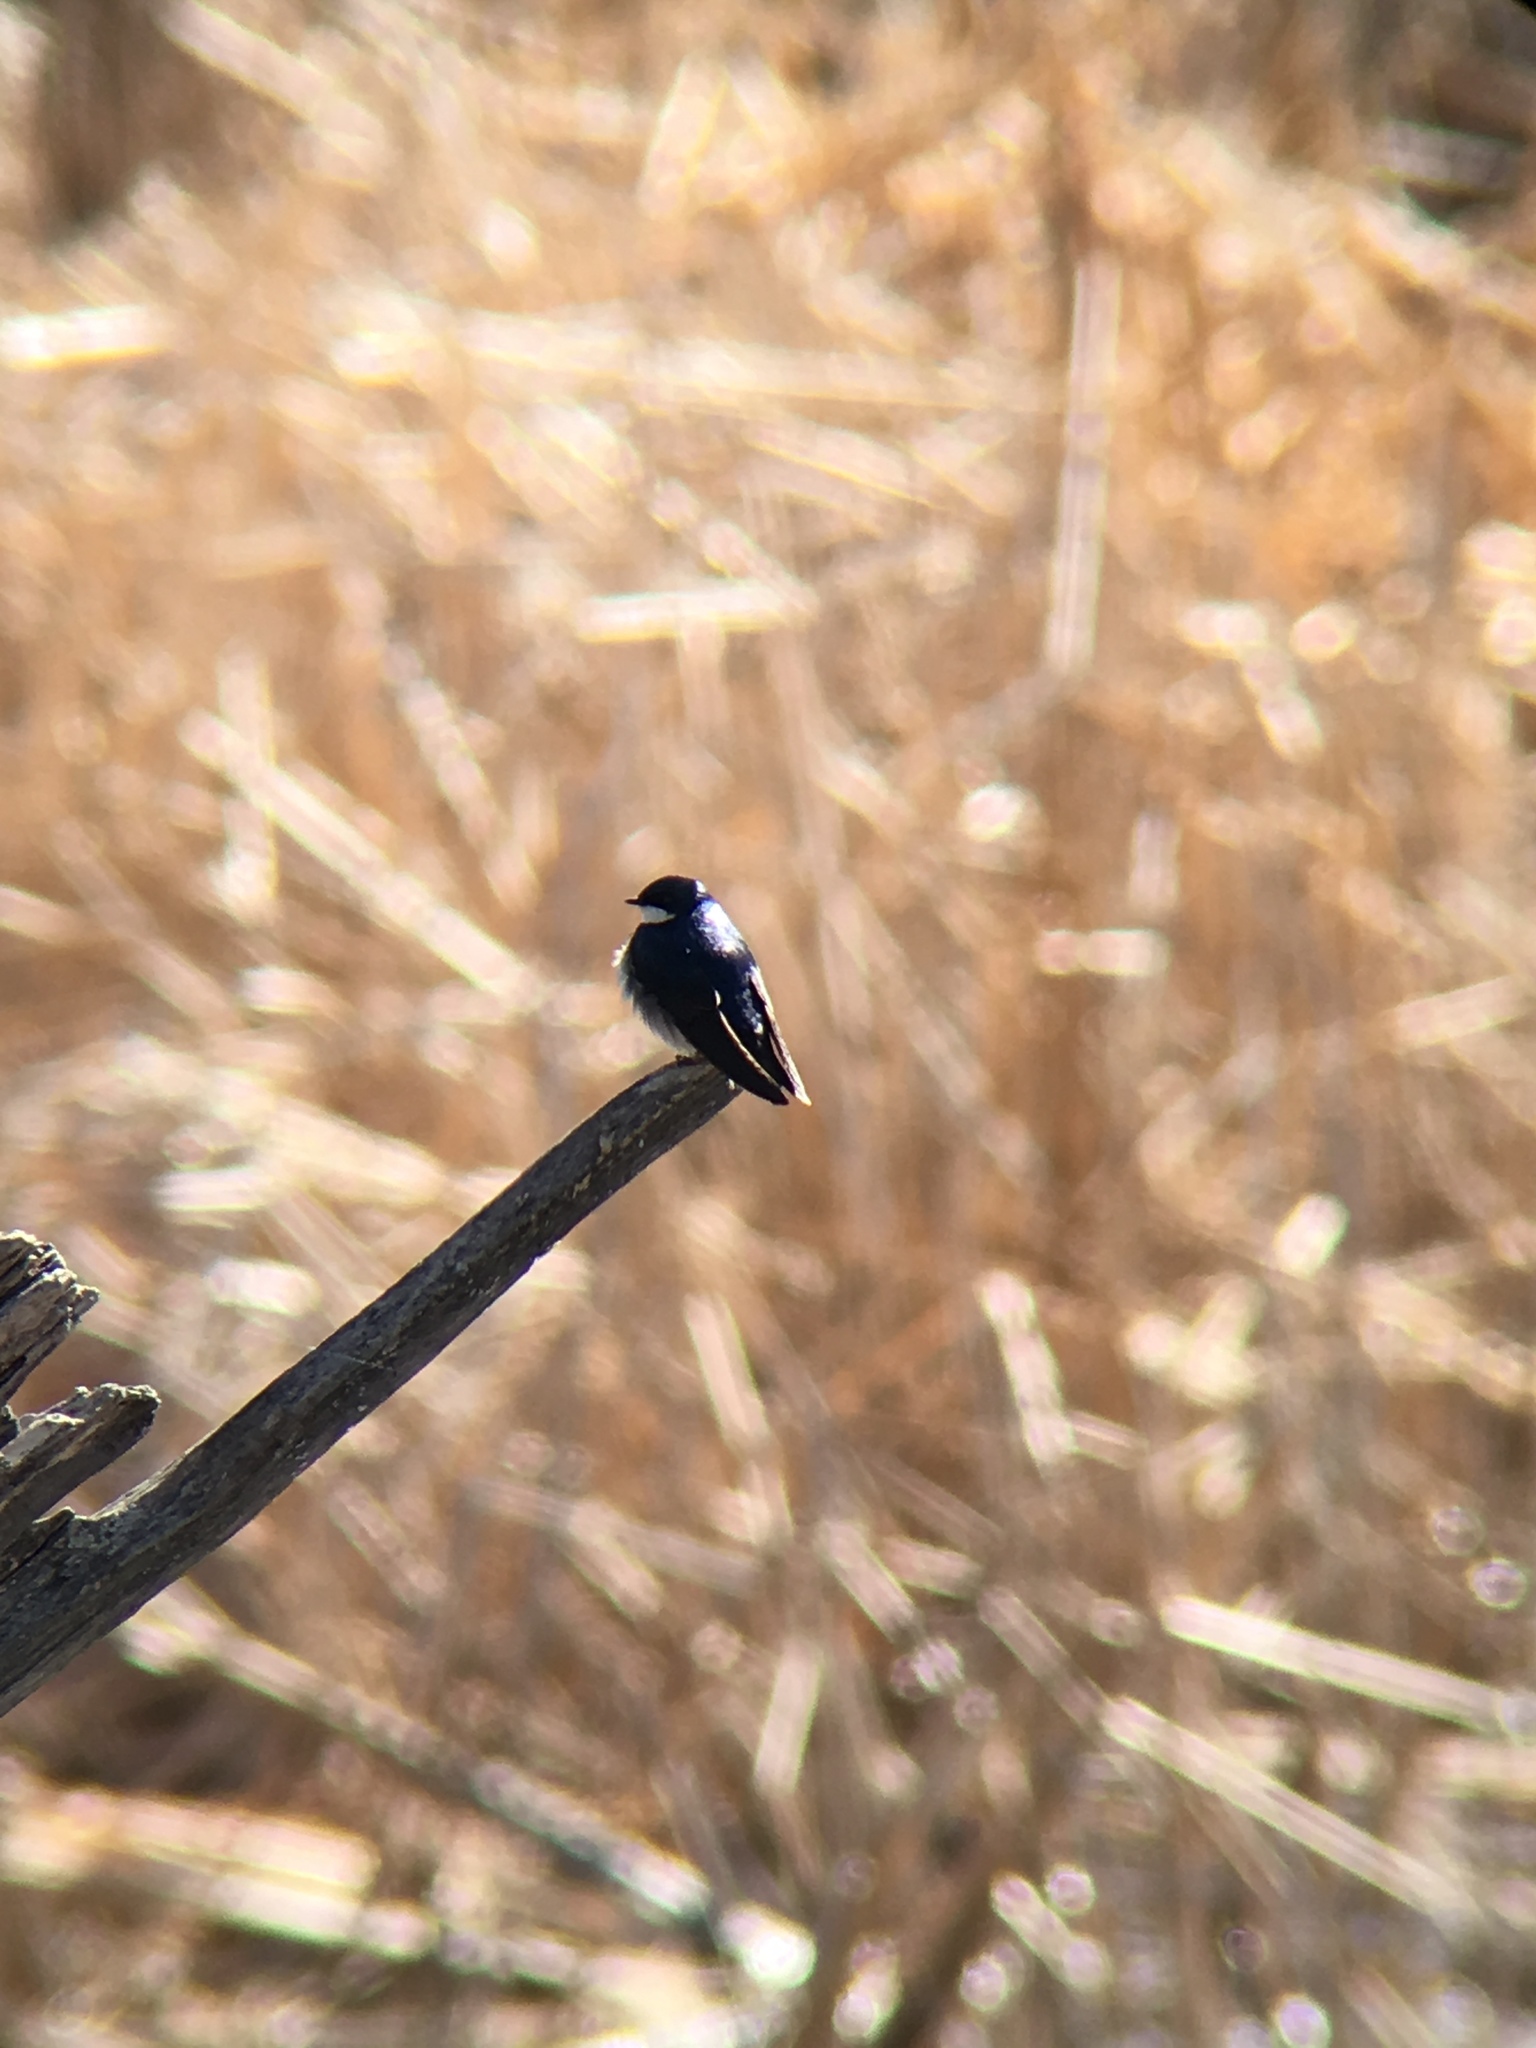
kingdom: Animalia
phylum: Chordata
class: Aves
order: Passeriformes
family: Hirundinidae
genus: Tachycineta
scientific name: Tachycineta bicolor
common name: Tree swallow
